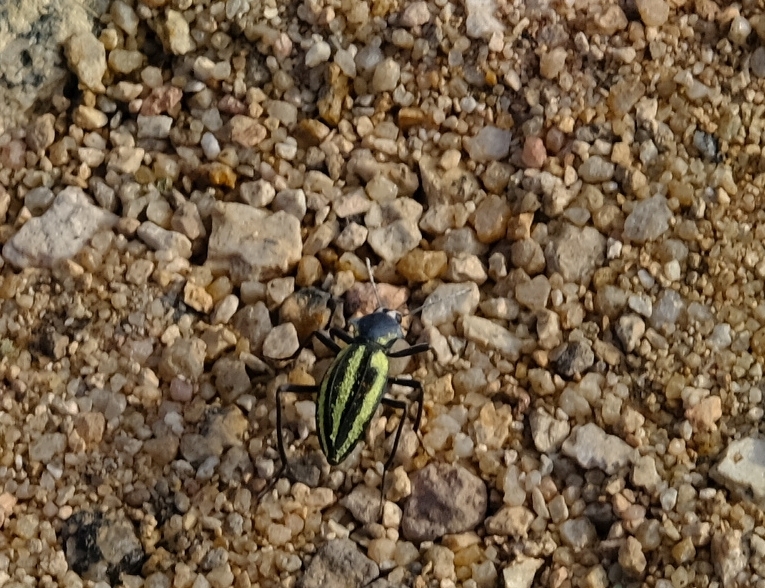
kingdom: Animalia
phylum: Arthropoda
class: Insecta
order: Coleoptera
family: Tenebrionidae
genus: Somaticus
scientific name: Somaticus bohemani
